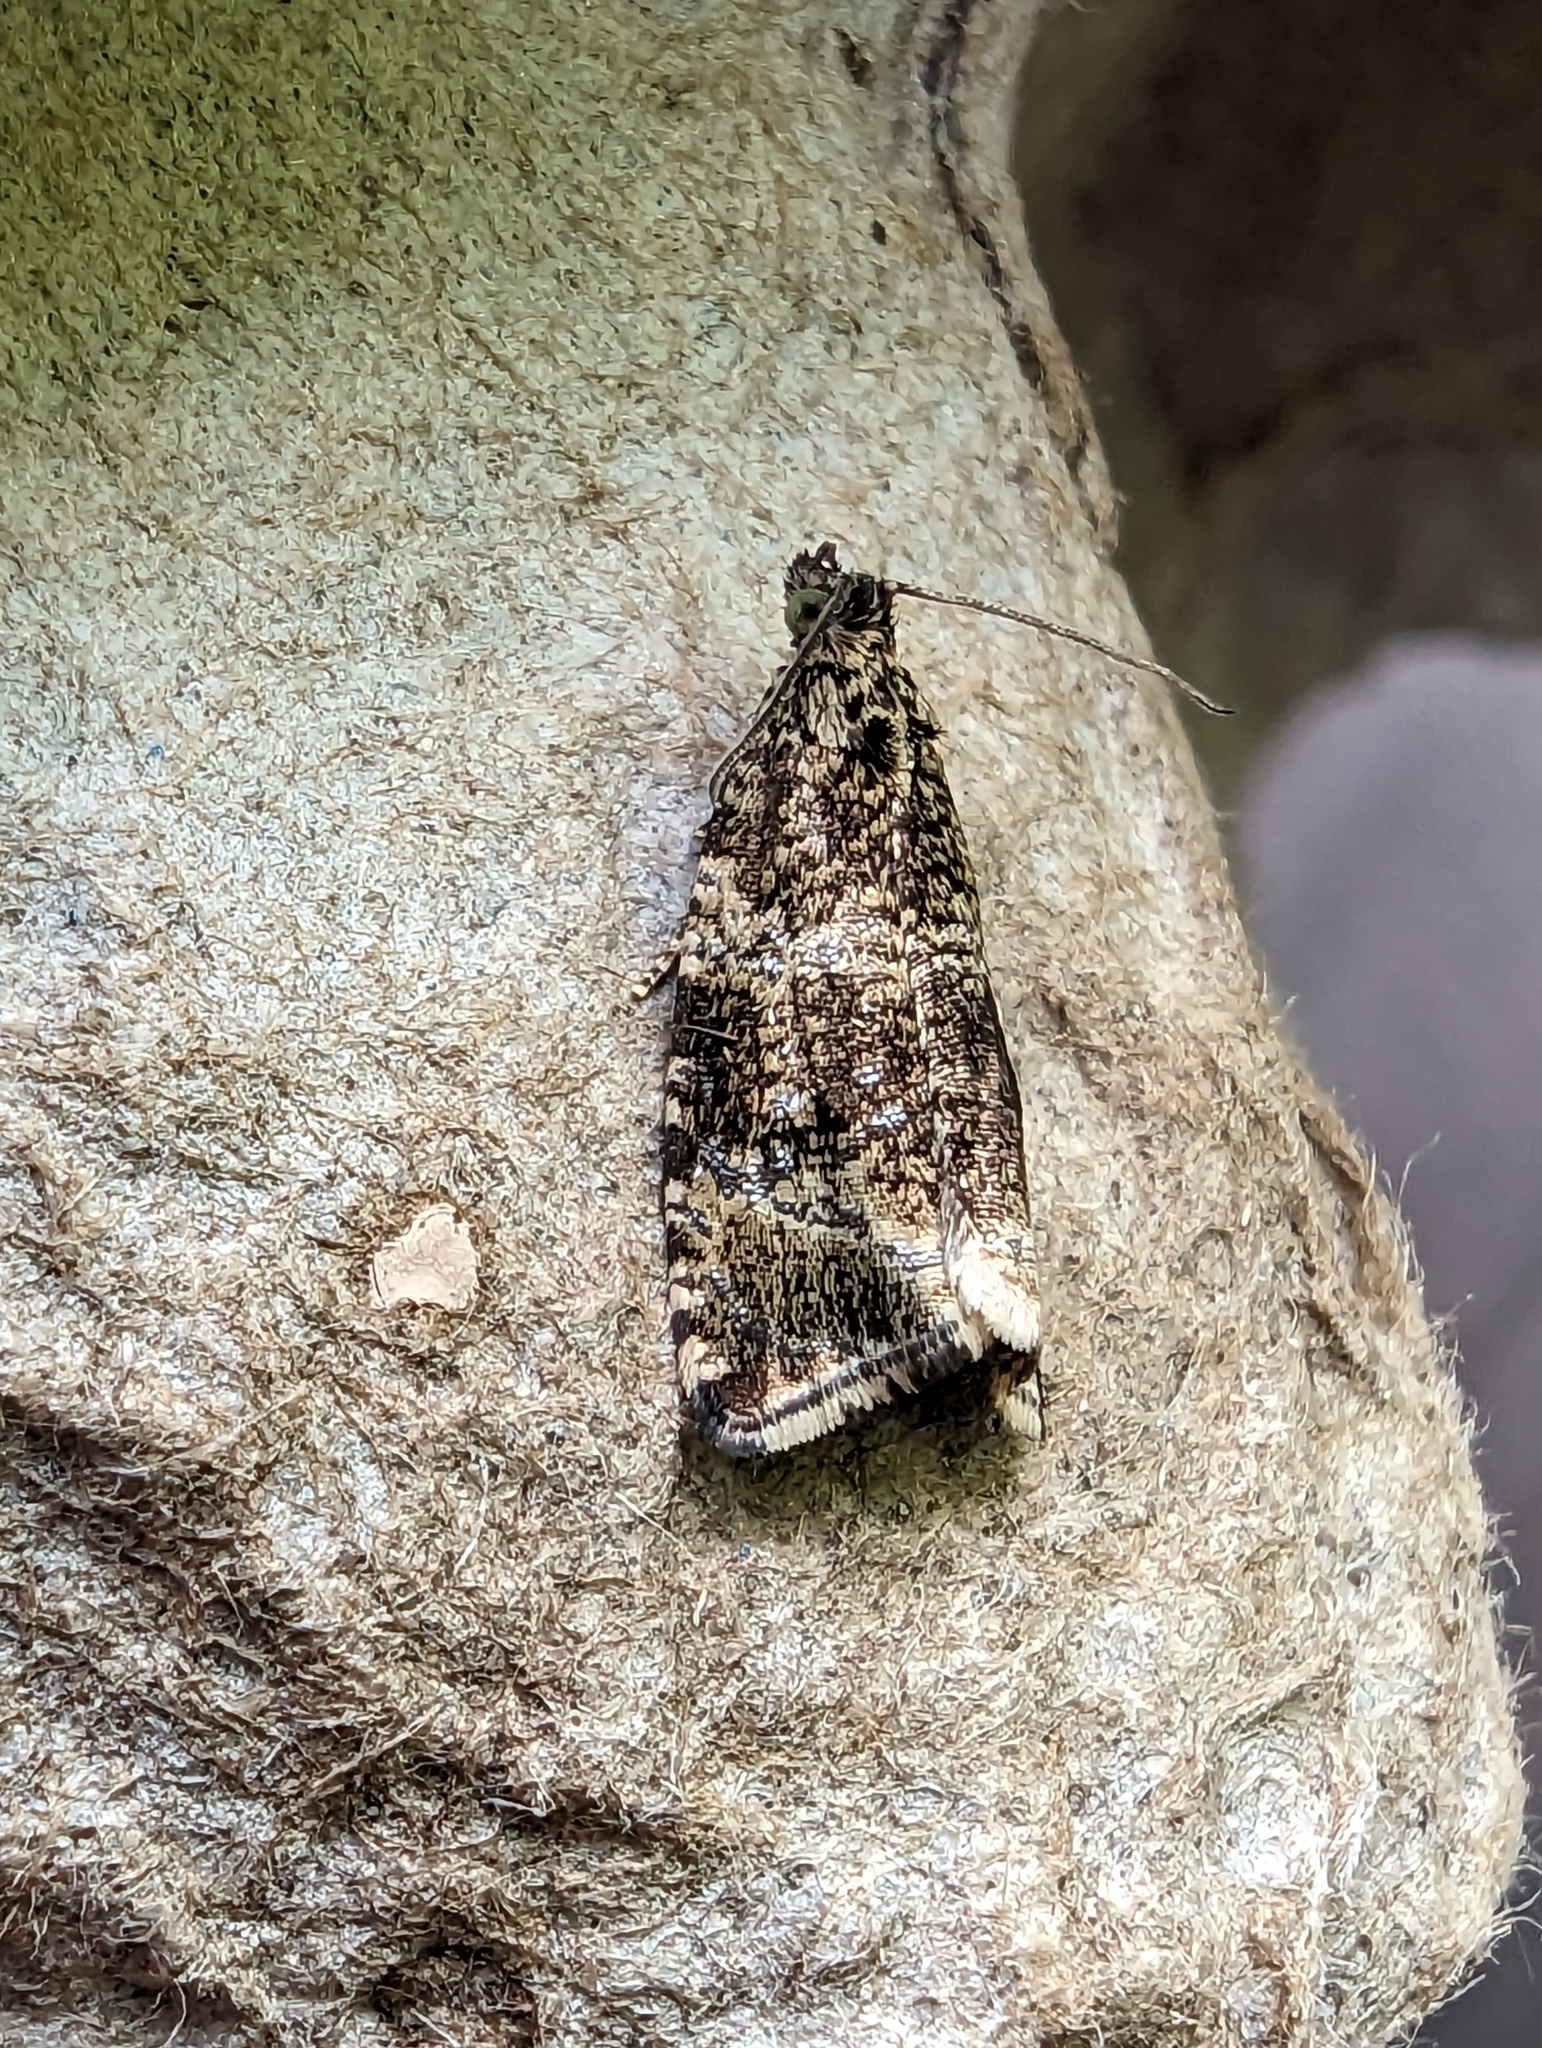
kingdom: Animalia
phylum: Arthropoda
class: Insecta
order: Lepidoptera
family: Tortricidae
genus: Syricoris
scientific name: Syricoris lacunana
